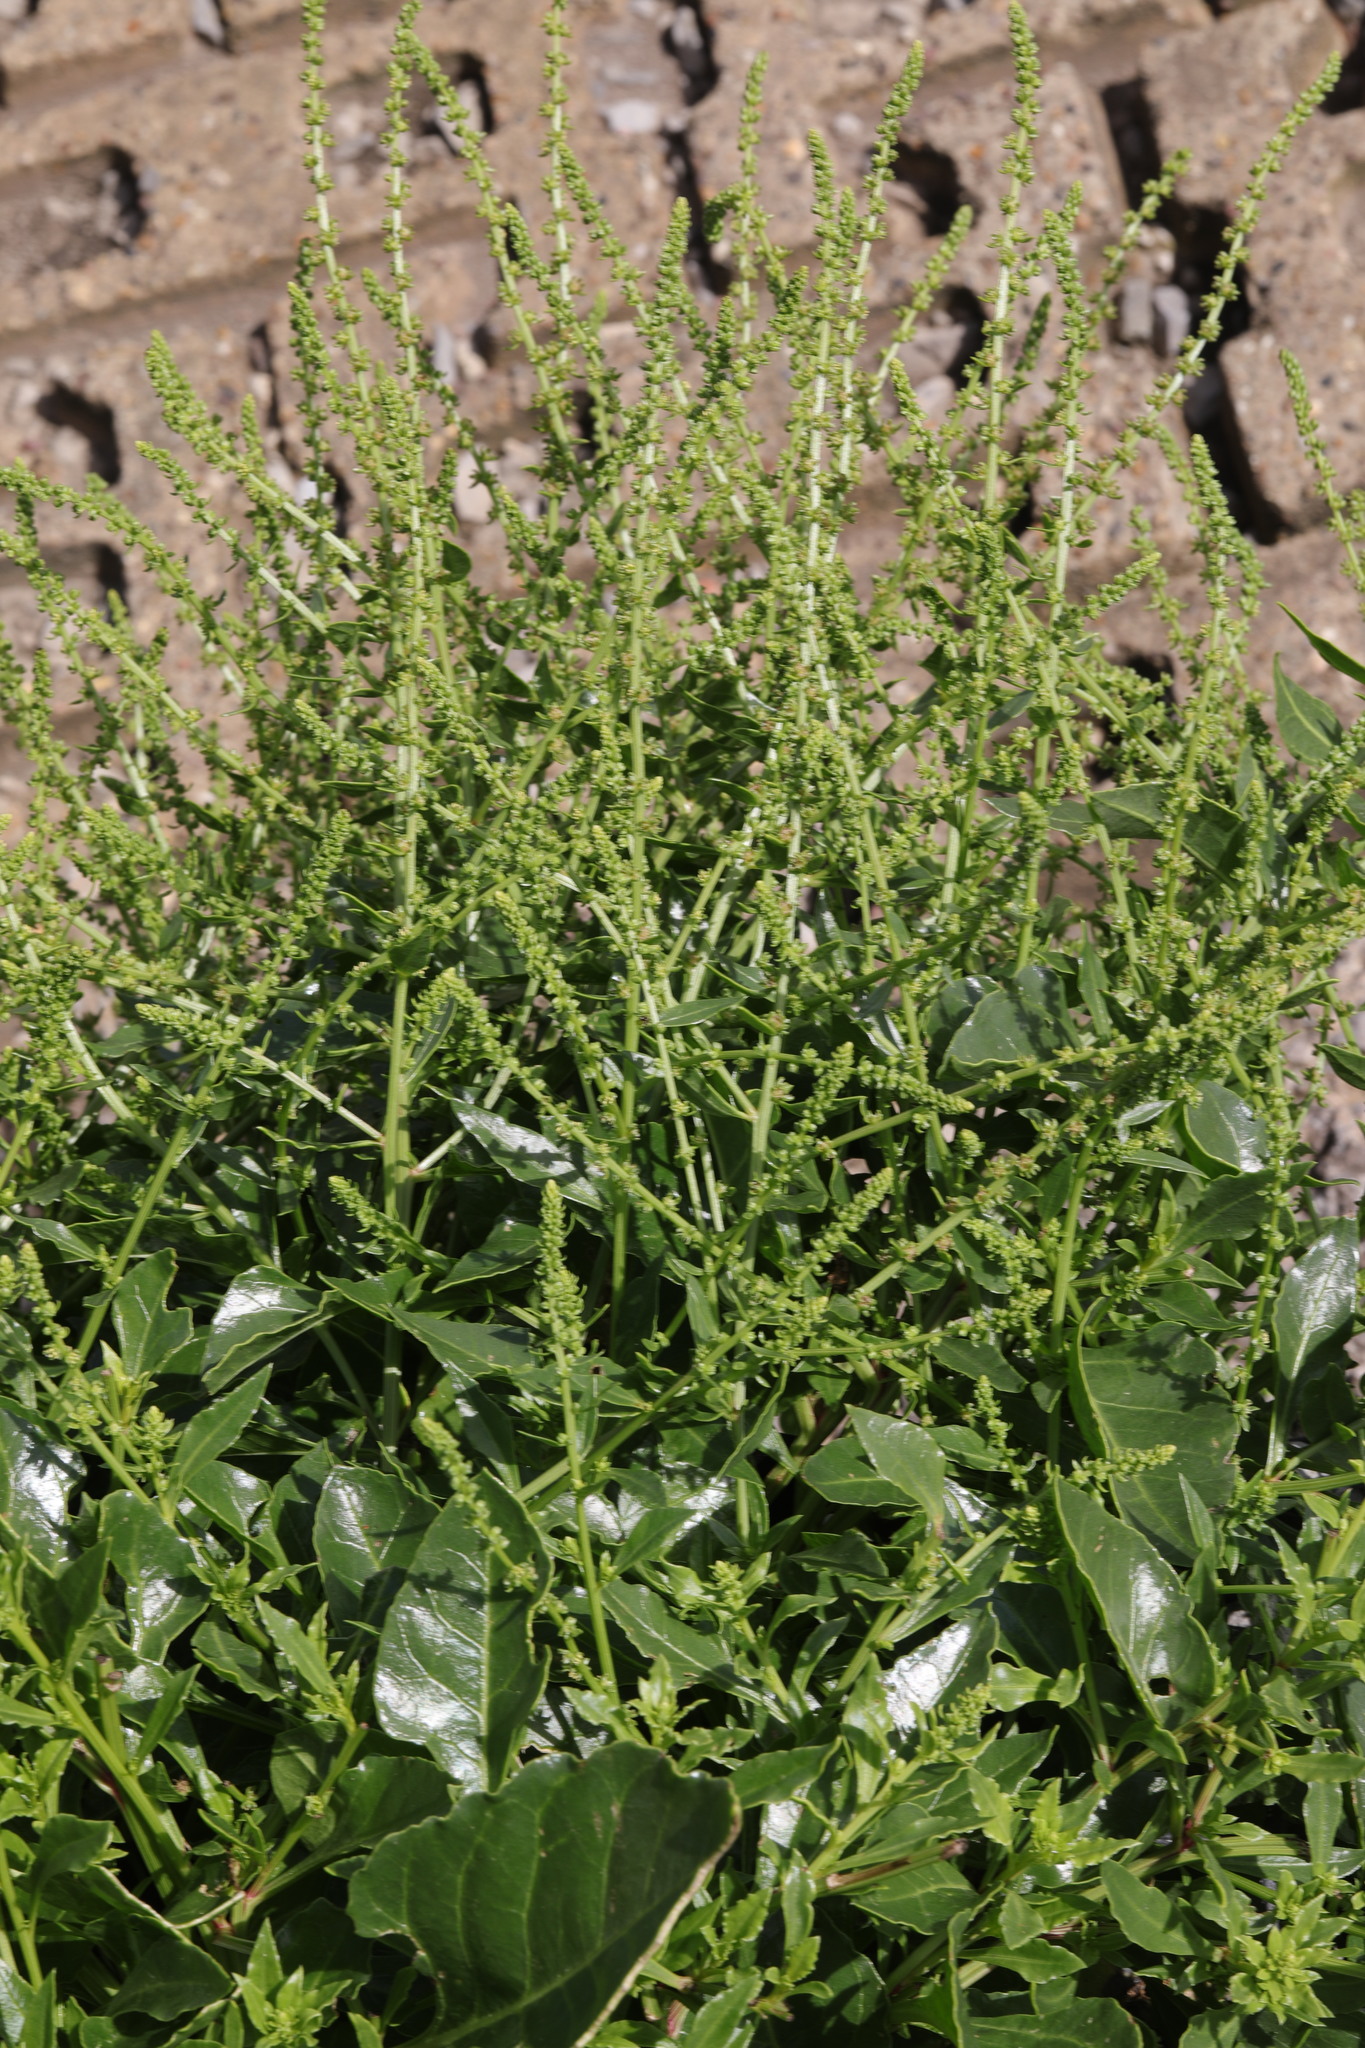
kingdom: Plantae
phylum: Tracheophyta
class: Magnoliopsida
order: Caryophyllales
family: Amaranthaceae
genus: Beta
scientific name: Beta vulgaris
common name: Beet
